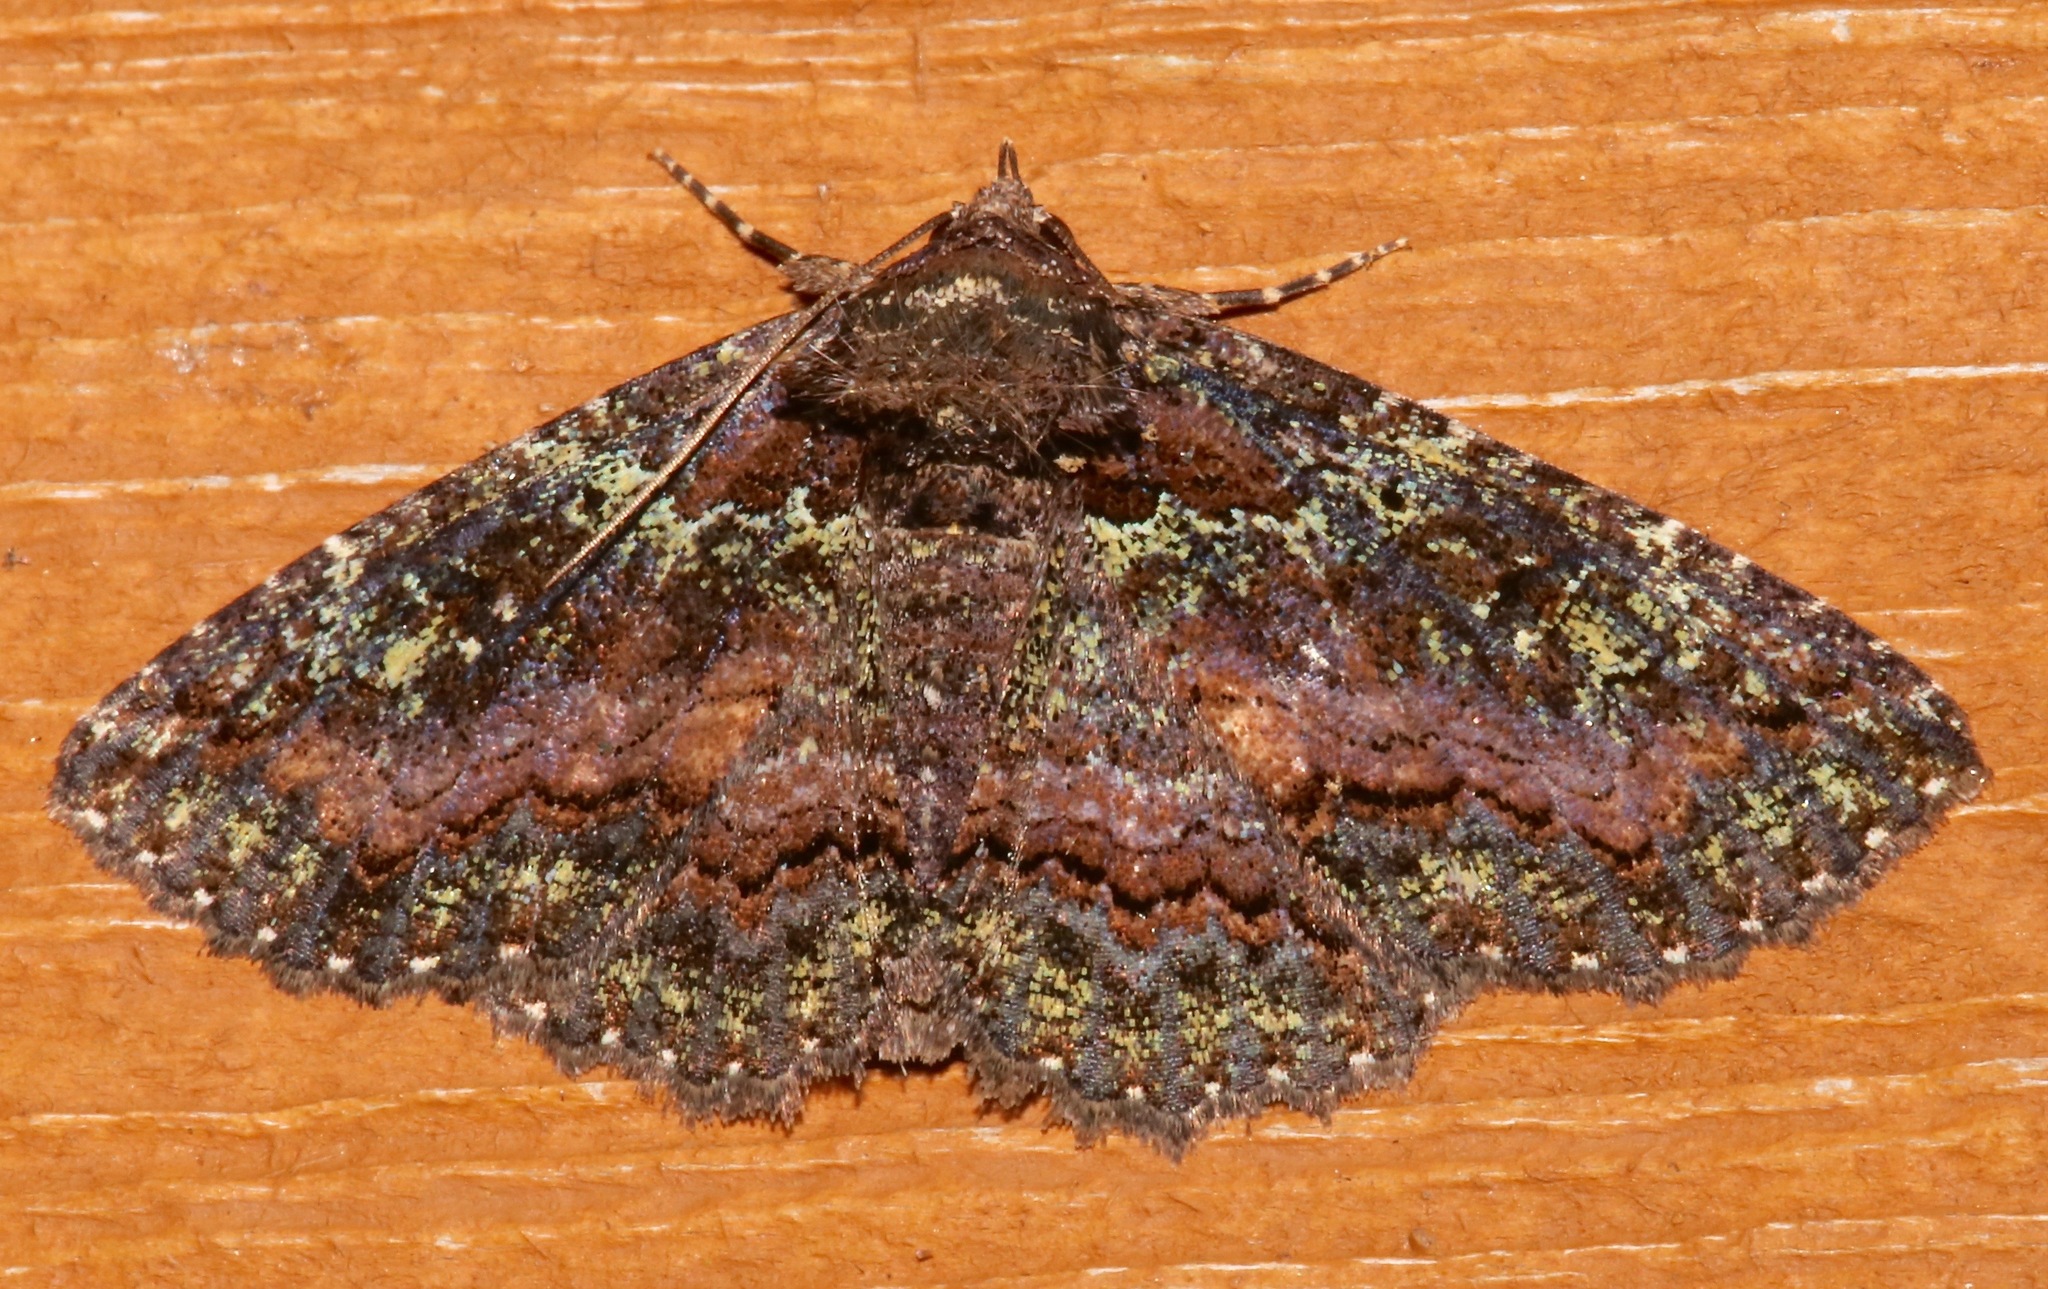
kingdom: Animalia
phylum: Arthropoda
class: Insecta
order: Lepidoptera
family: Erebidae
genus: Zale
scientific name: Zale aeruginosa
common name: Green-dusted zale moth
